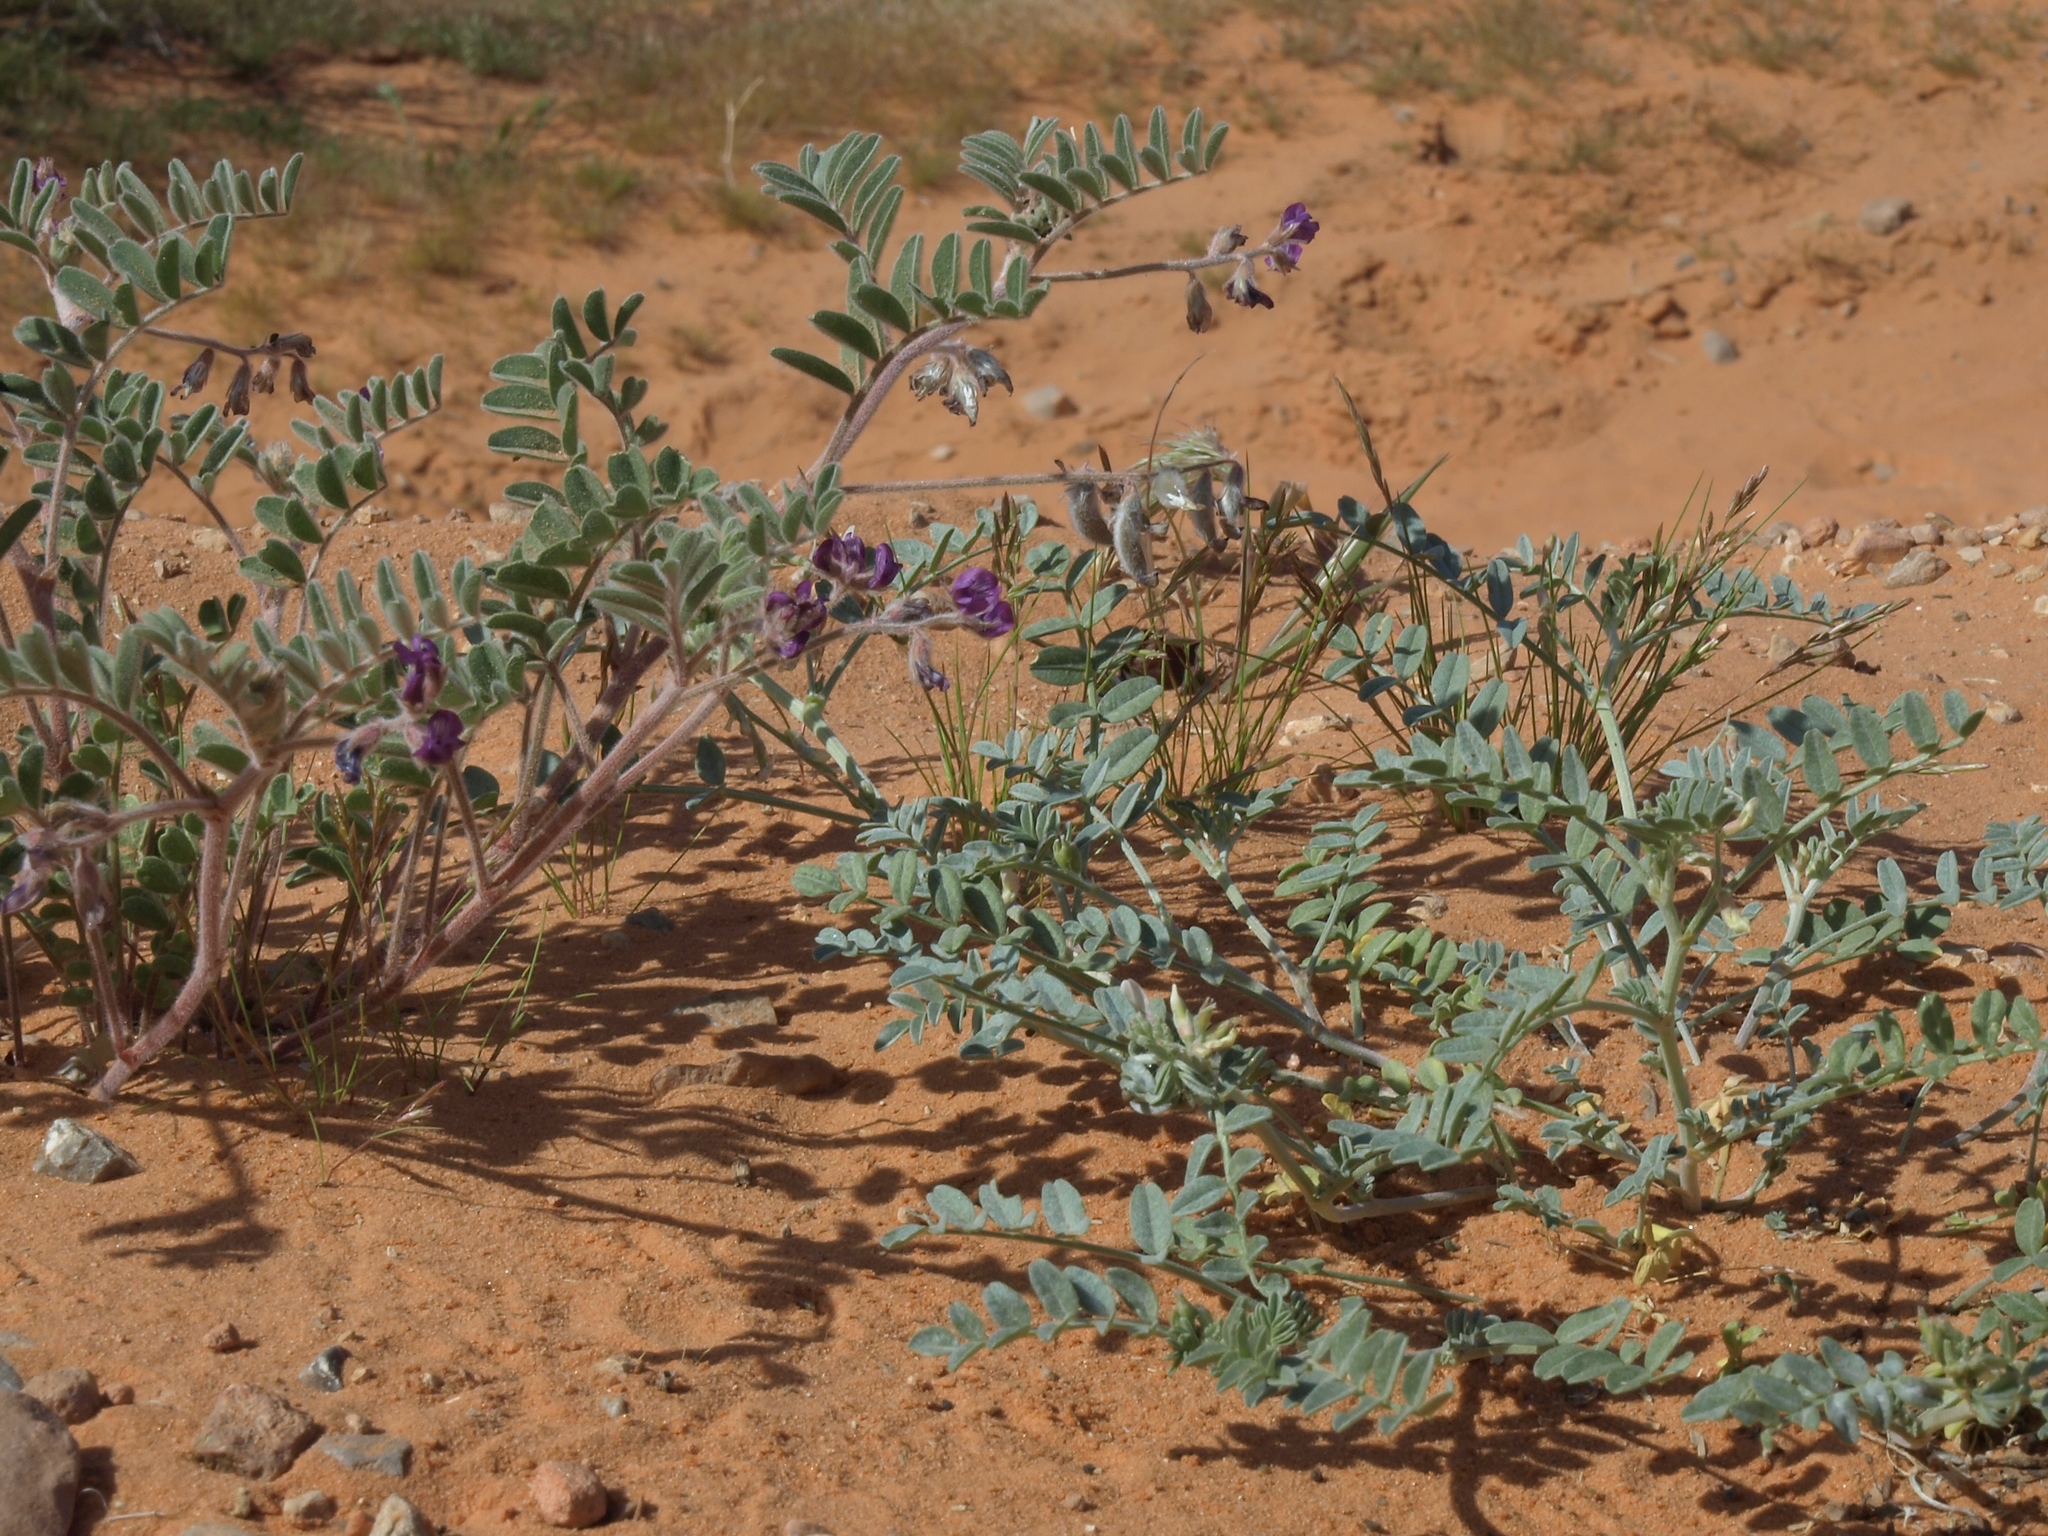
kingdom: Plantae
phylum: Tracheophyta
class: Magnoliopsida
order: Fabales
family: Fabaceae
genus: Astragalus
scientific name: Astragalus sabulonum
